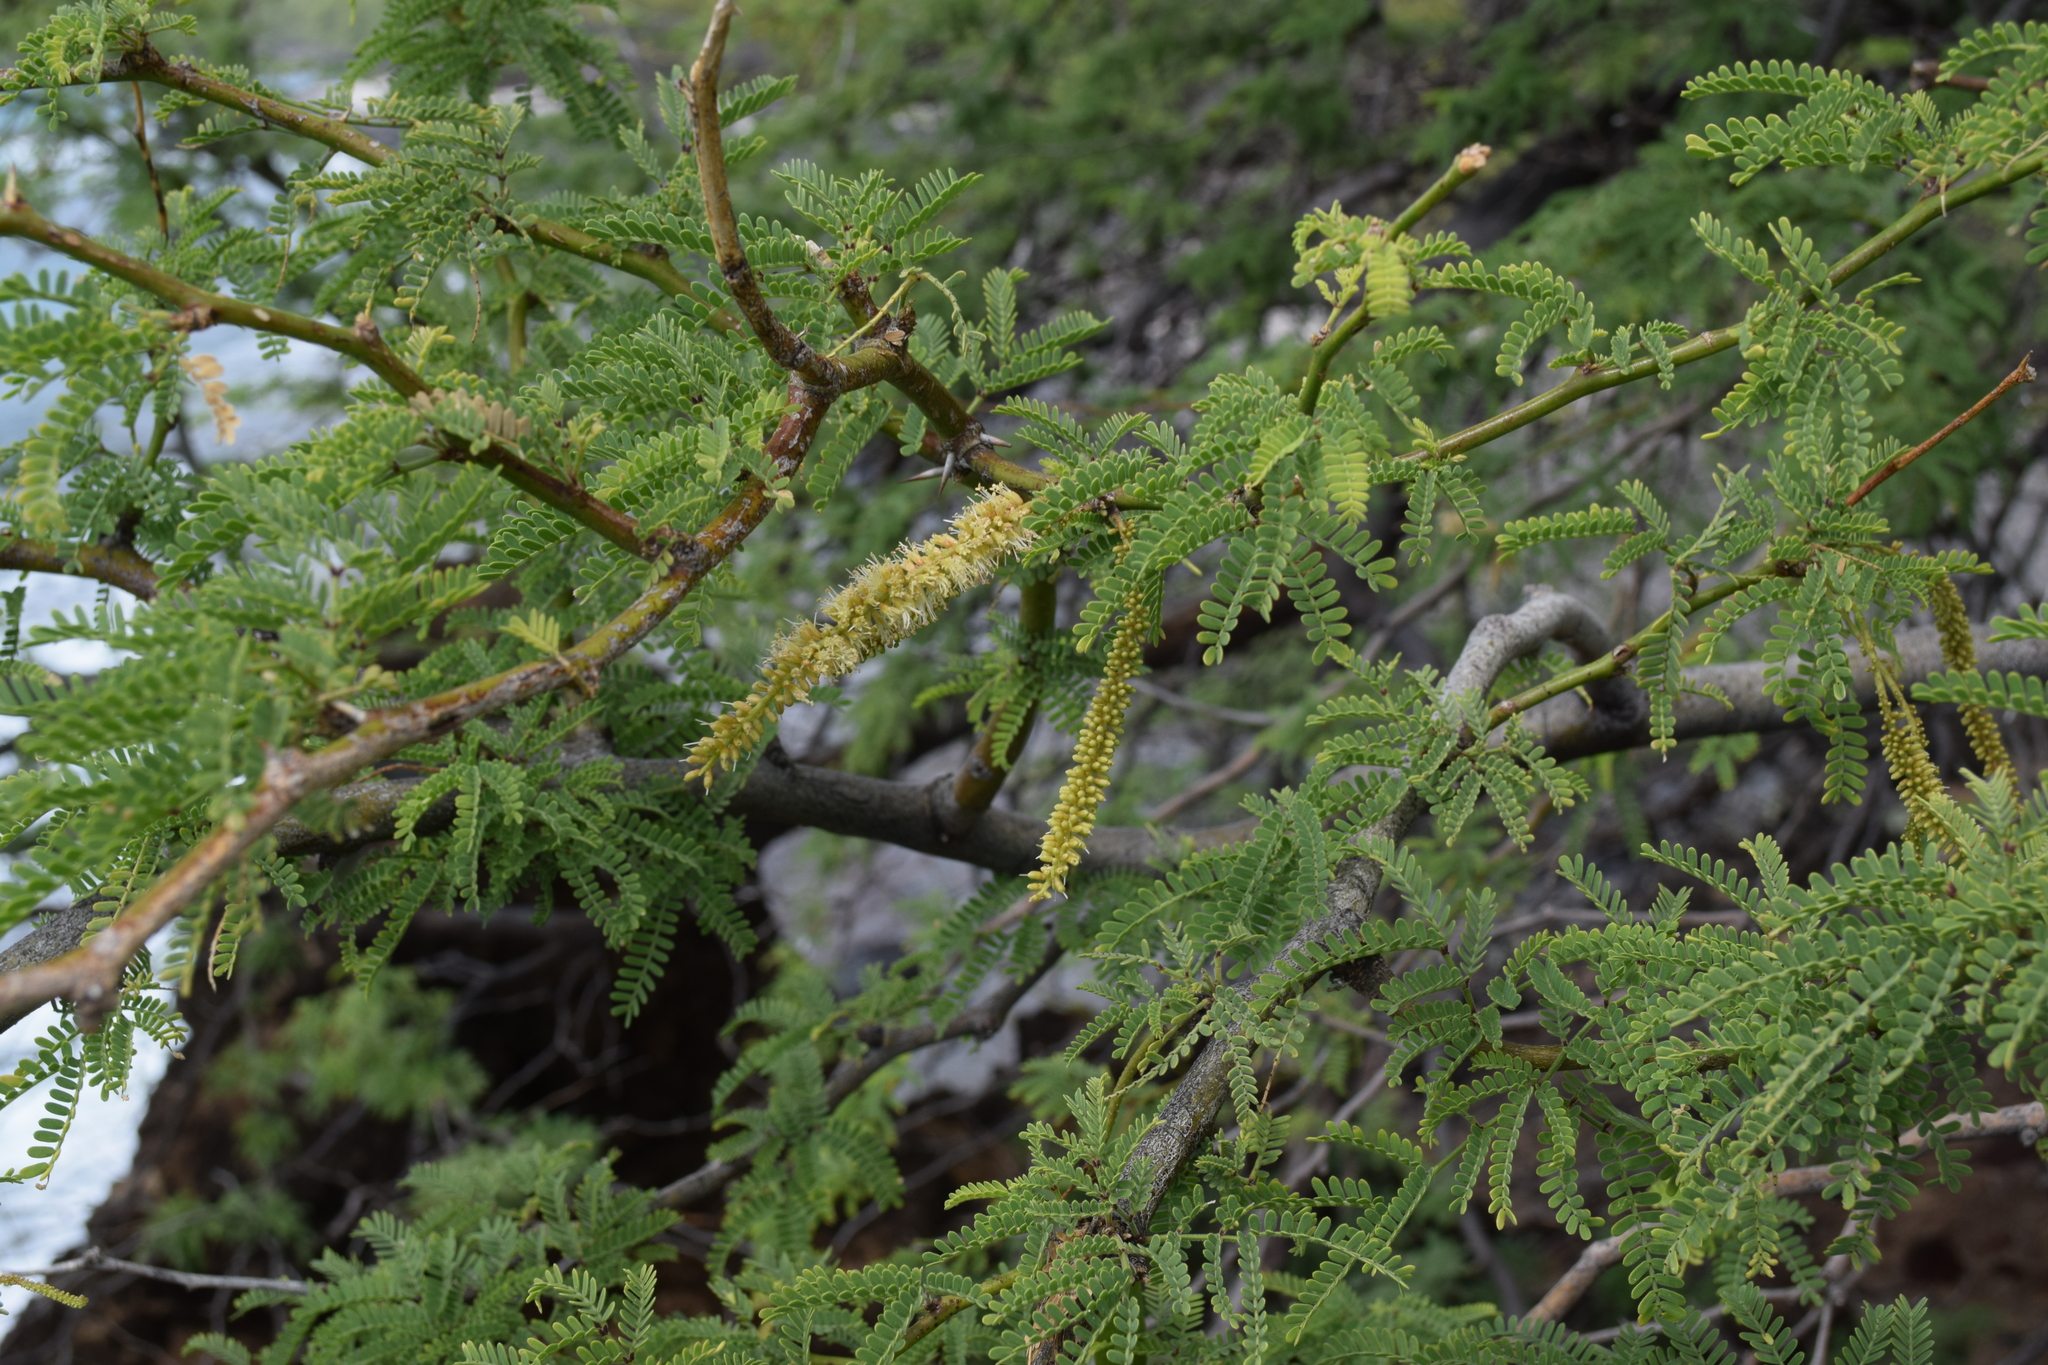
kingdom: Plantae
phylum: Tracheophyta
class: Magnoliopsida
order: Fabales
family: Fabaceae
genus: Prosopis
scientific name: Prosopis pallida
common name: Mesquite
